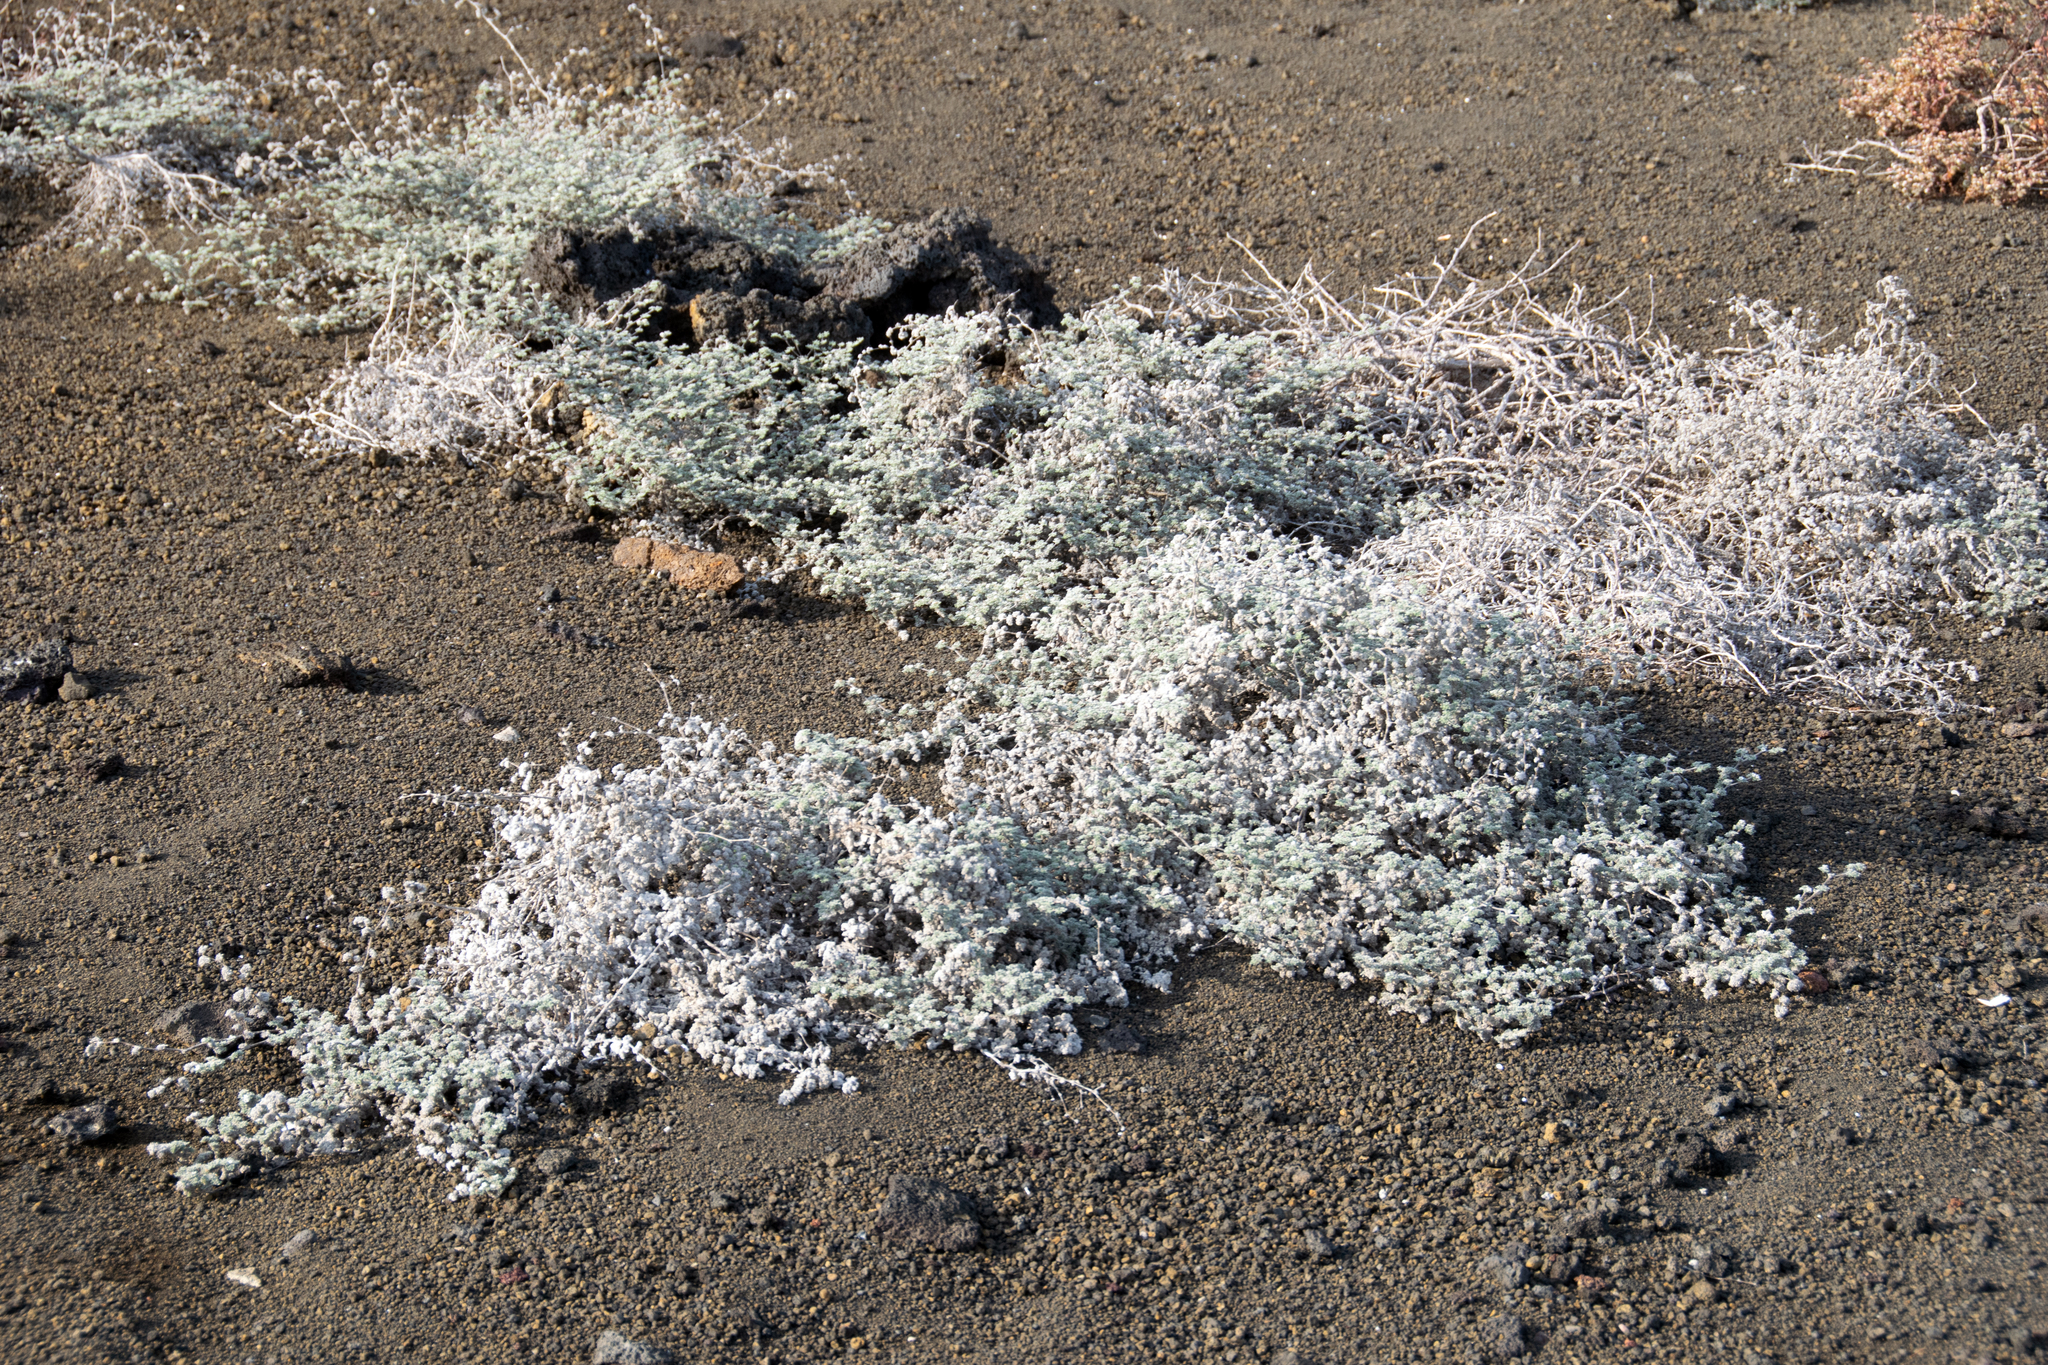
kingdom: Plantae
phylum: Tracheophyta
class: Magnoliopsida
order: Boraginales
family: Ehretiaceae
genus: Tiquilia
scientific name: Tiquilia nesiotica
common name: Gray matplant
